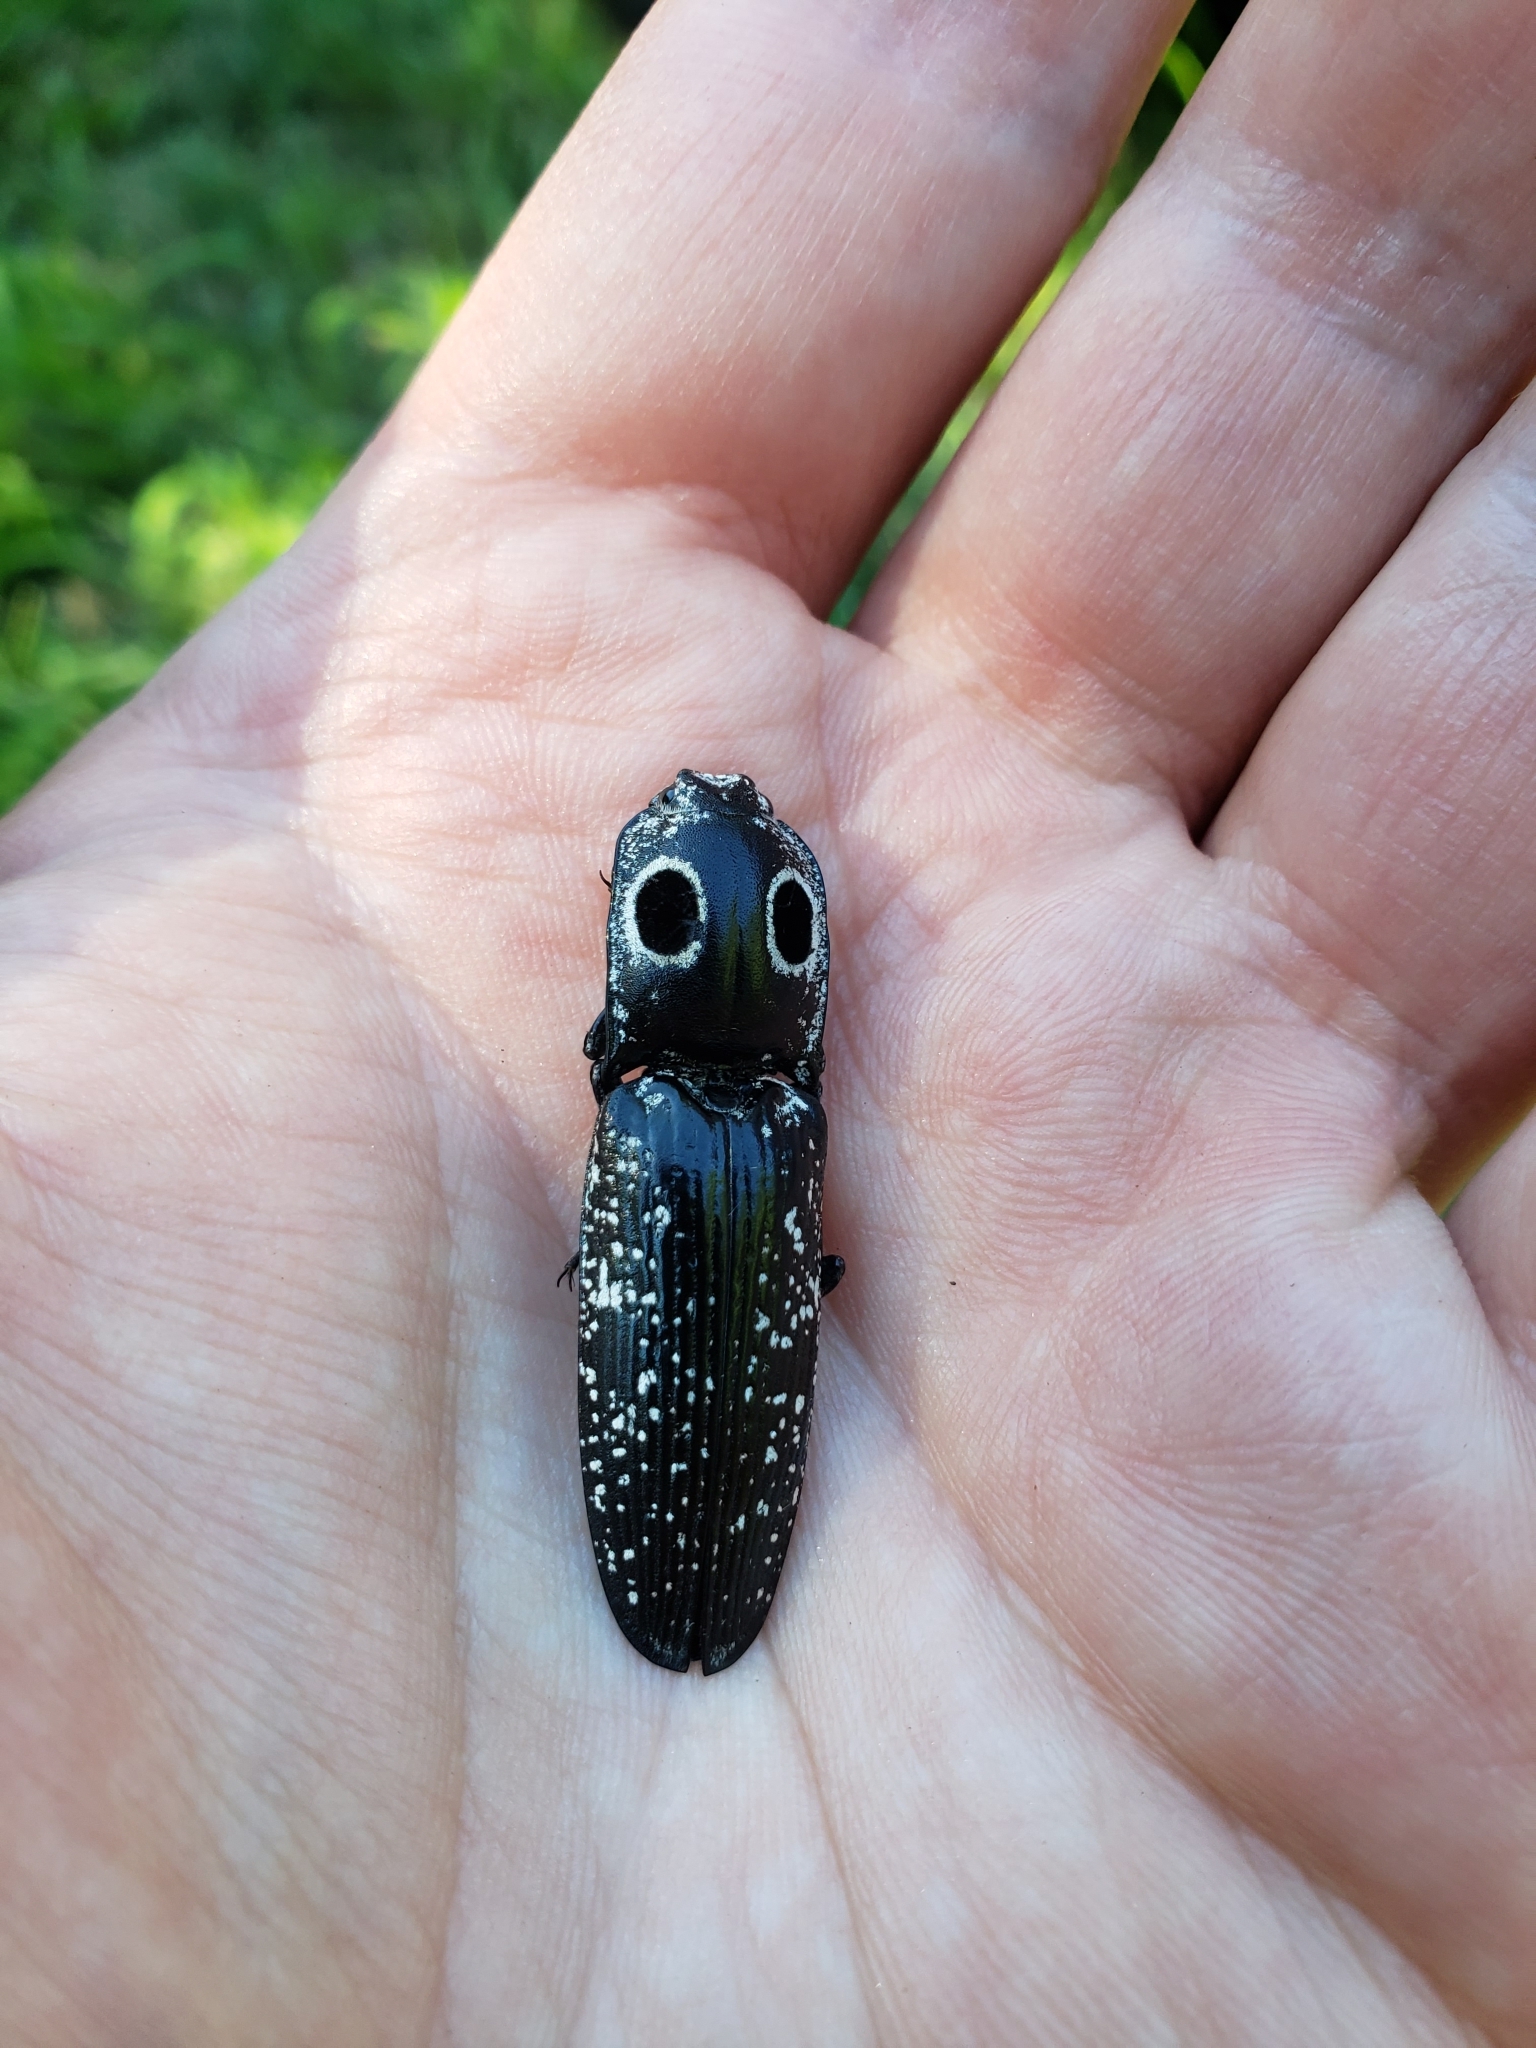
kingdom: Animalia
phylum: Arthropoda
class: Insecta
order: Coleoptera
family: Elateridae
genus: Alaus
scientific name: Alaus oculatus
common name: Eastern eyed click beetle
